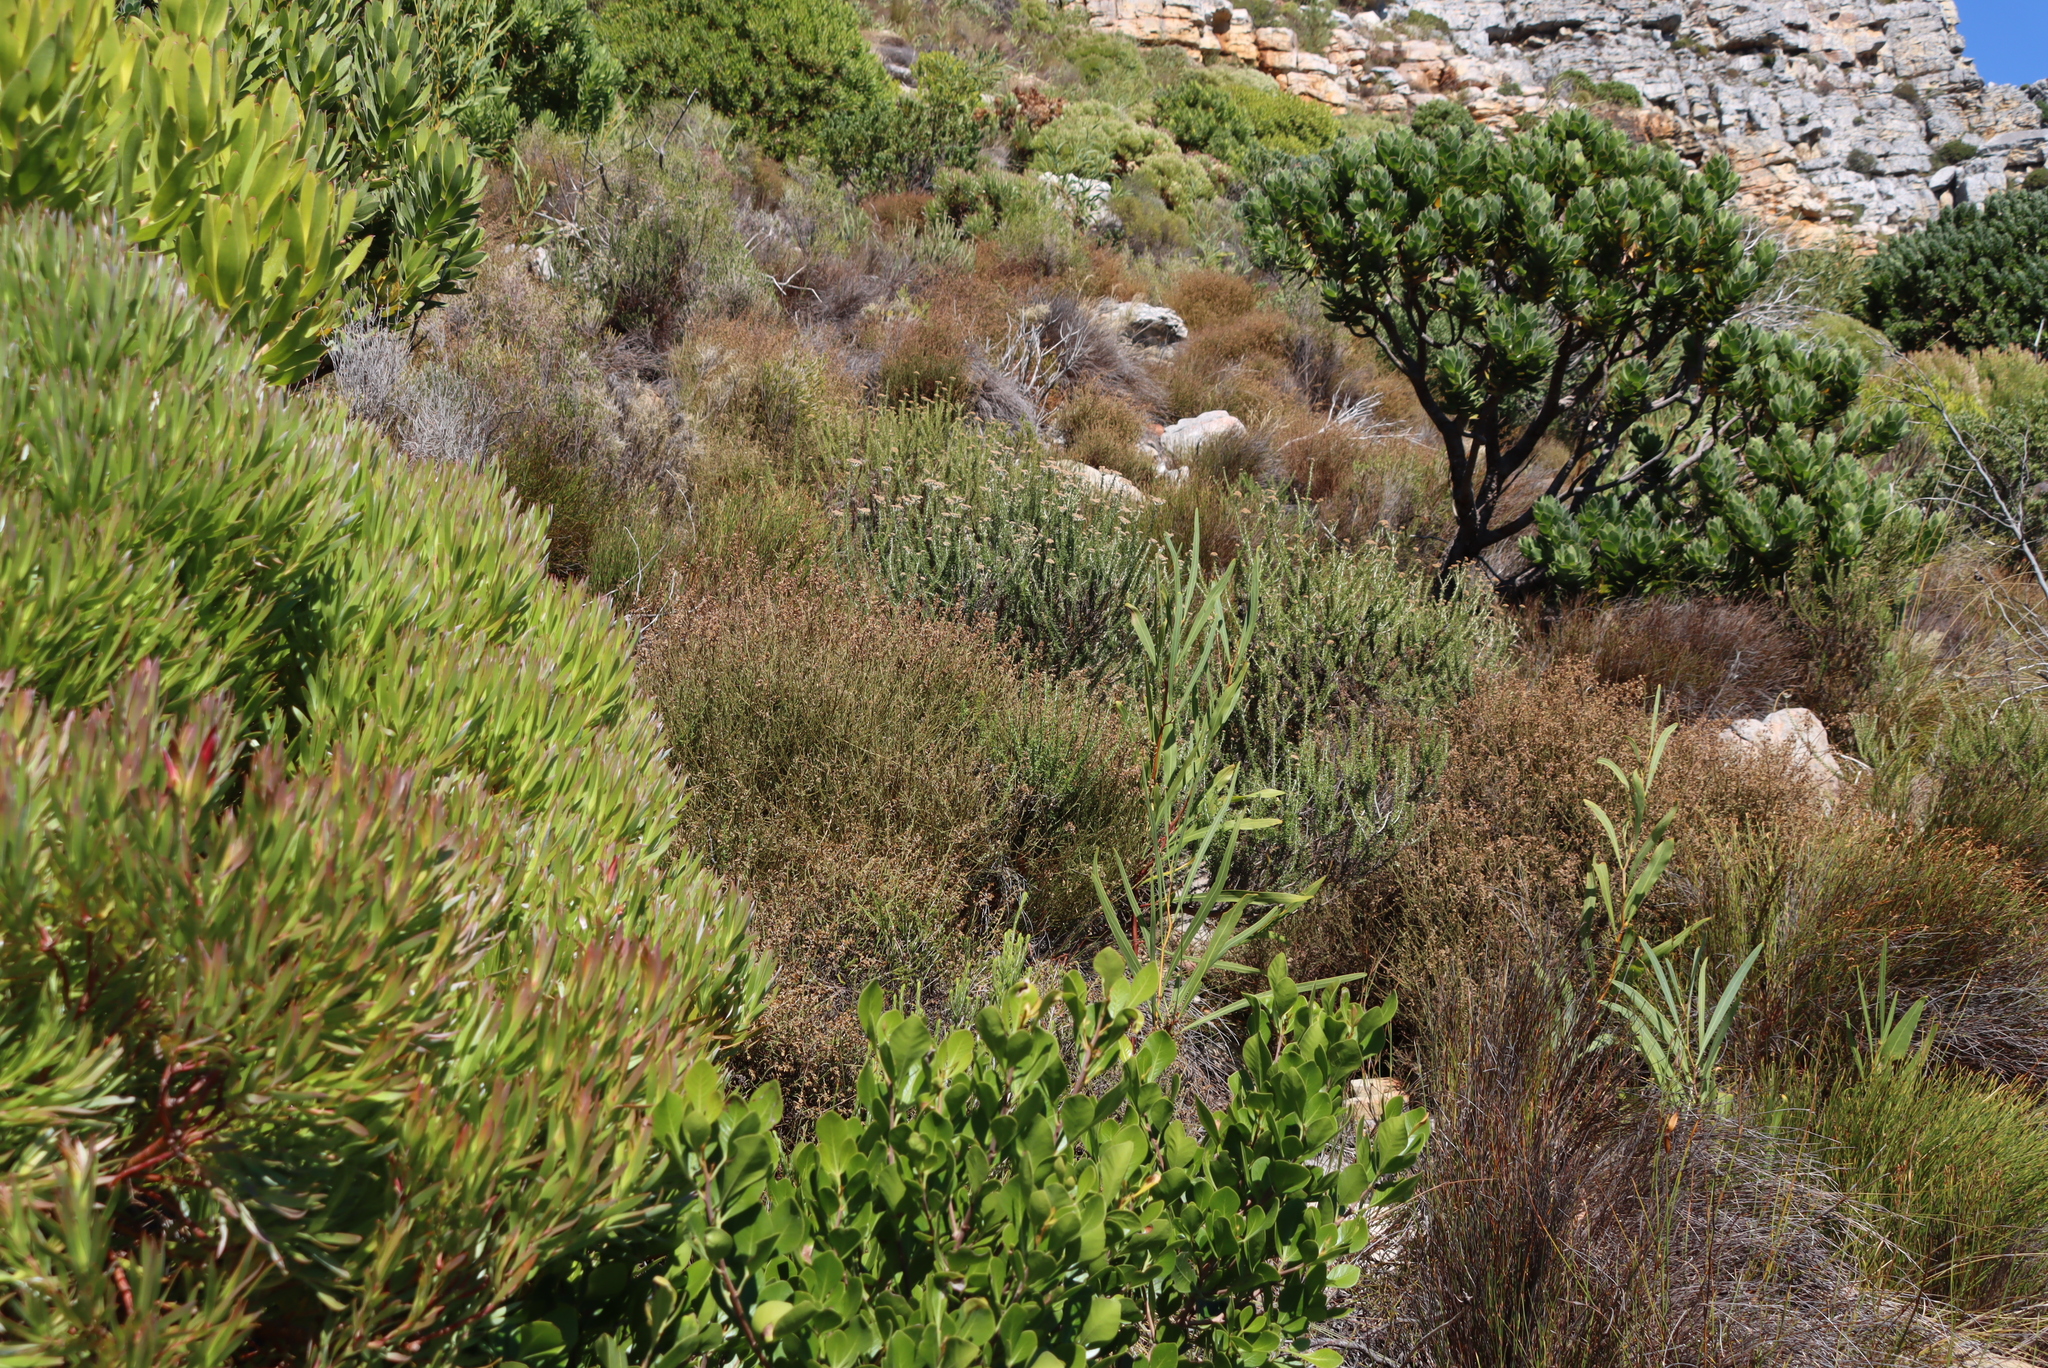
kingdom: Plantae
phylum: Tracheophyta
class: Magnoliopsida
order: Fabales
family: Fabaceae
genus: Acacia
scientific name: Acacia saligna
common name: Orange wattle
